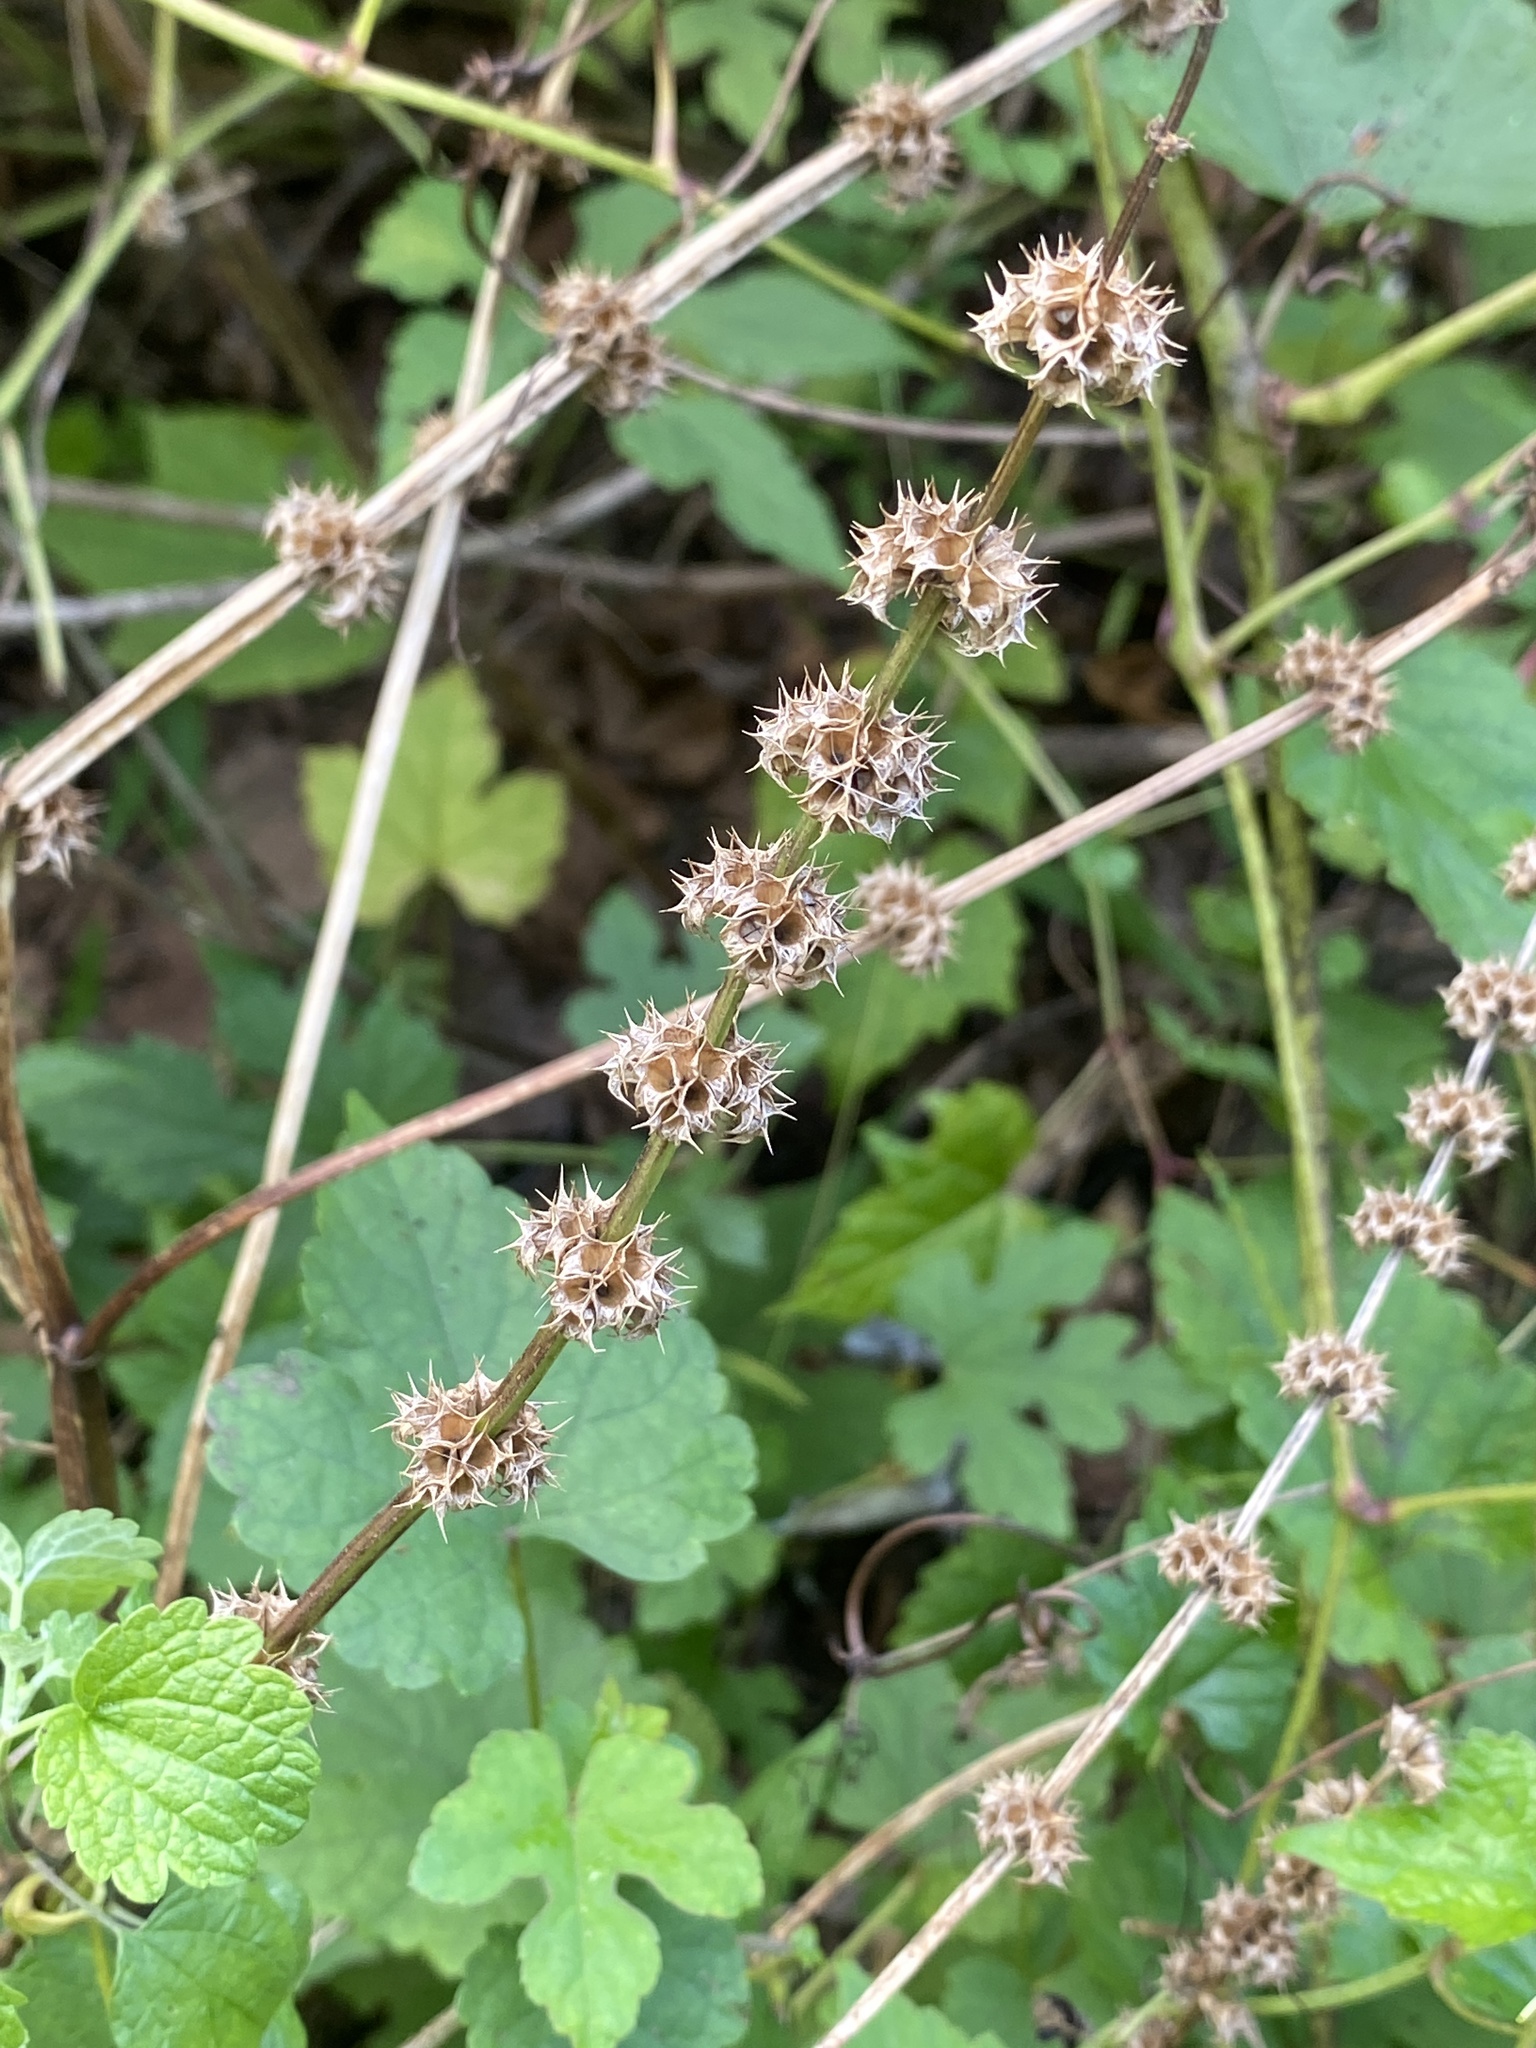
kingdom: Plantae
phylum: Tracheophyta
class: Magnoliopsida
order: Lamiales
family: Lamiaceae
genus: Leonurus
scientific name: Leonurus cardiaca
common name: Motherwort
